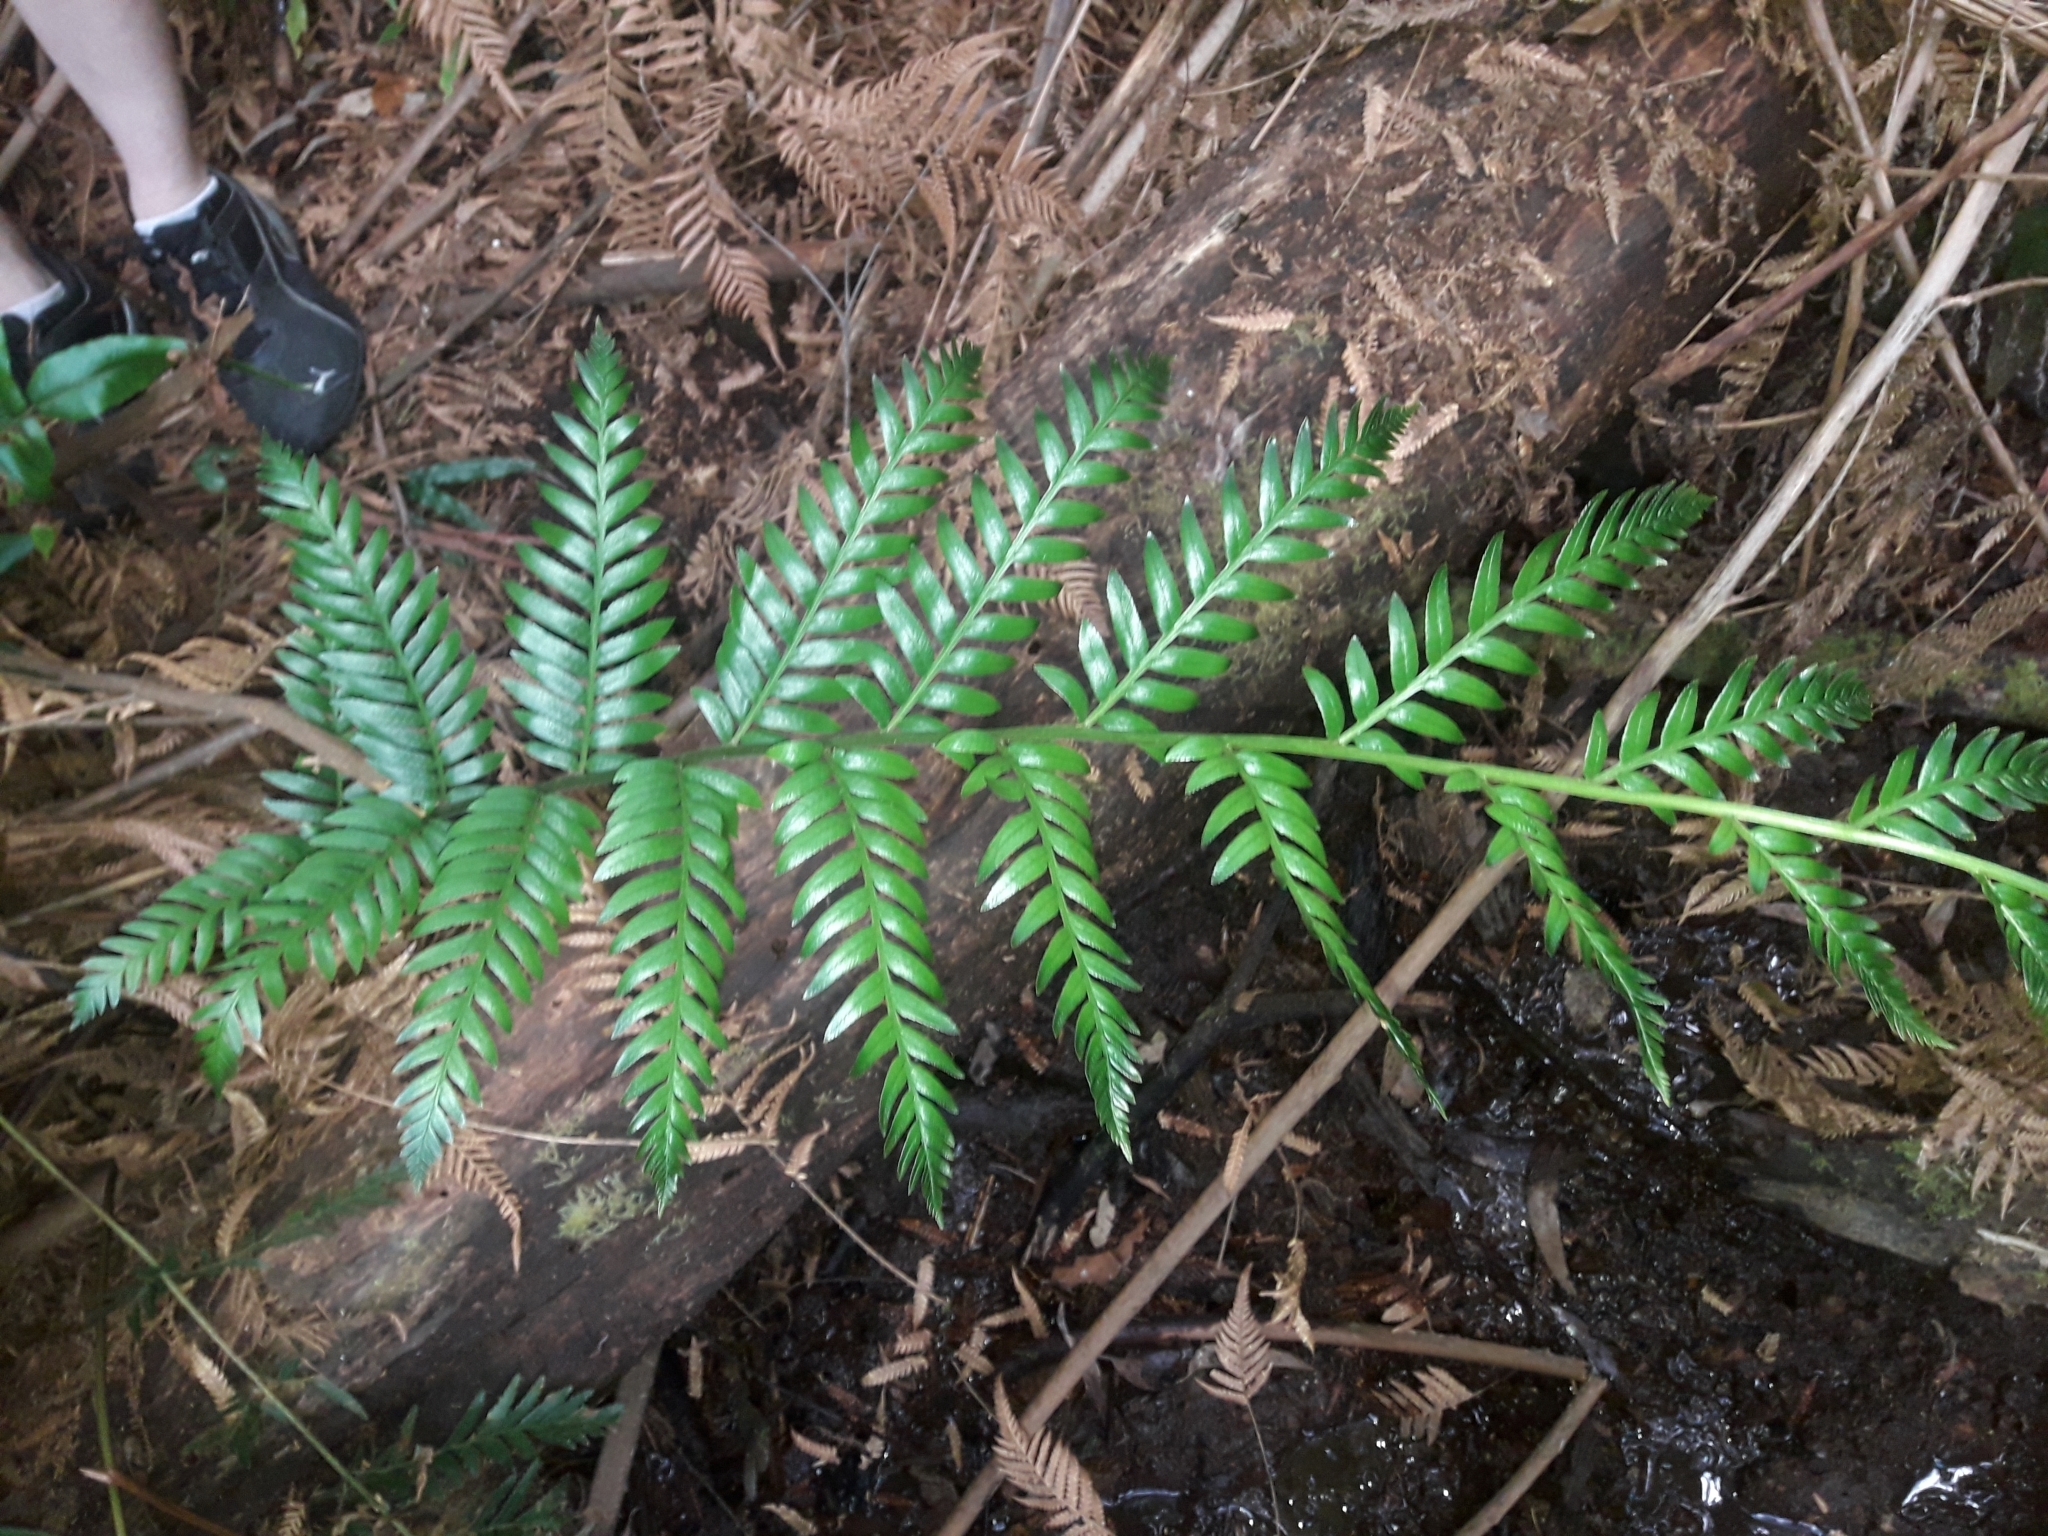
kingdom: Plantae
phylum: Tracheophyta
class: Polypodiopsida
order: Osmundales
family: Osmundaceae
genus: Todea
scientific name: Todea barbara
